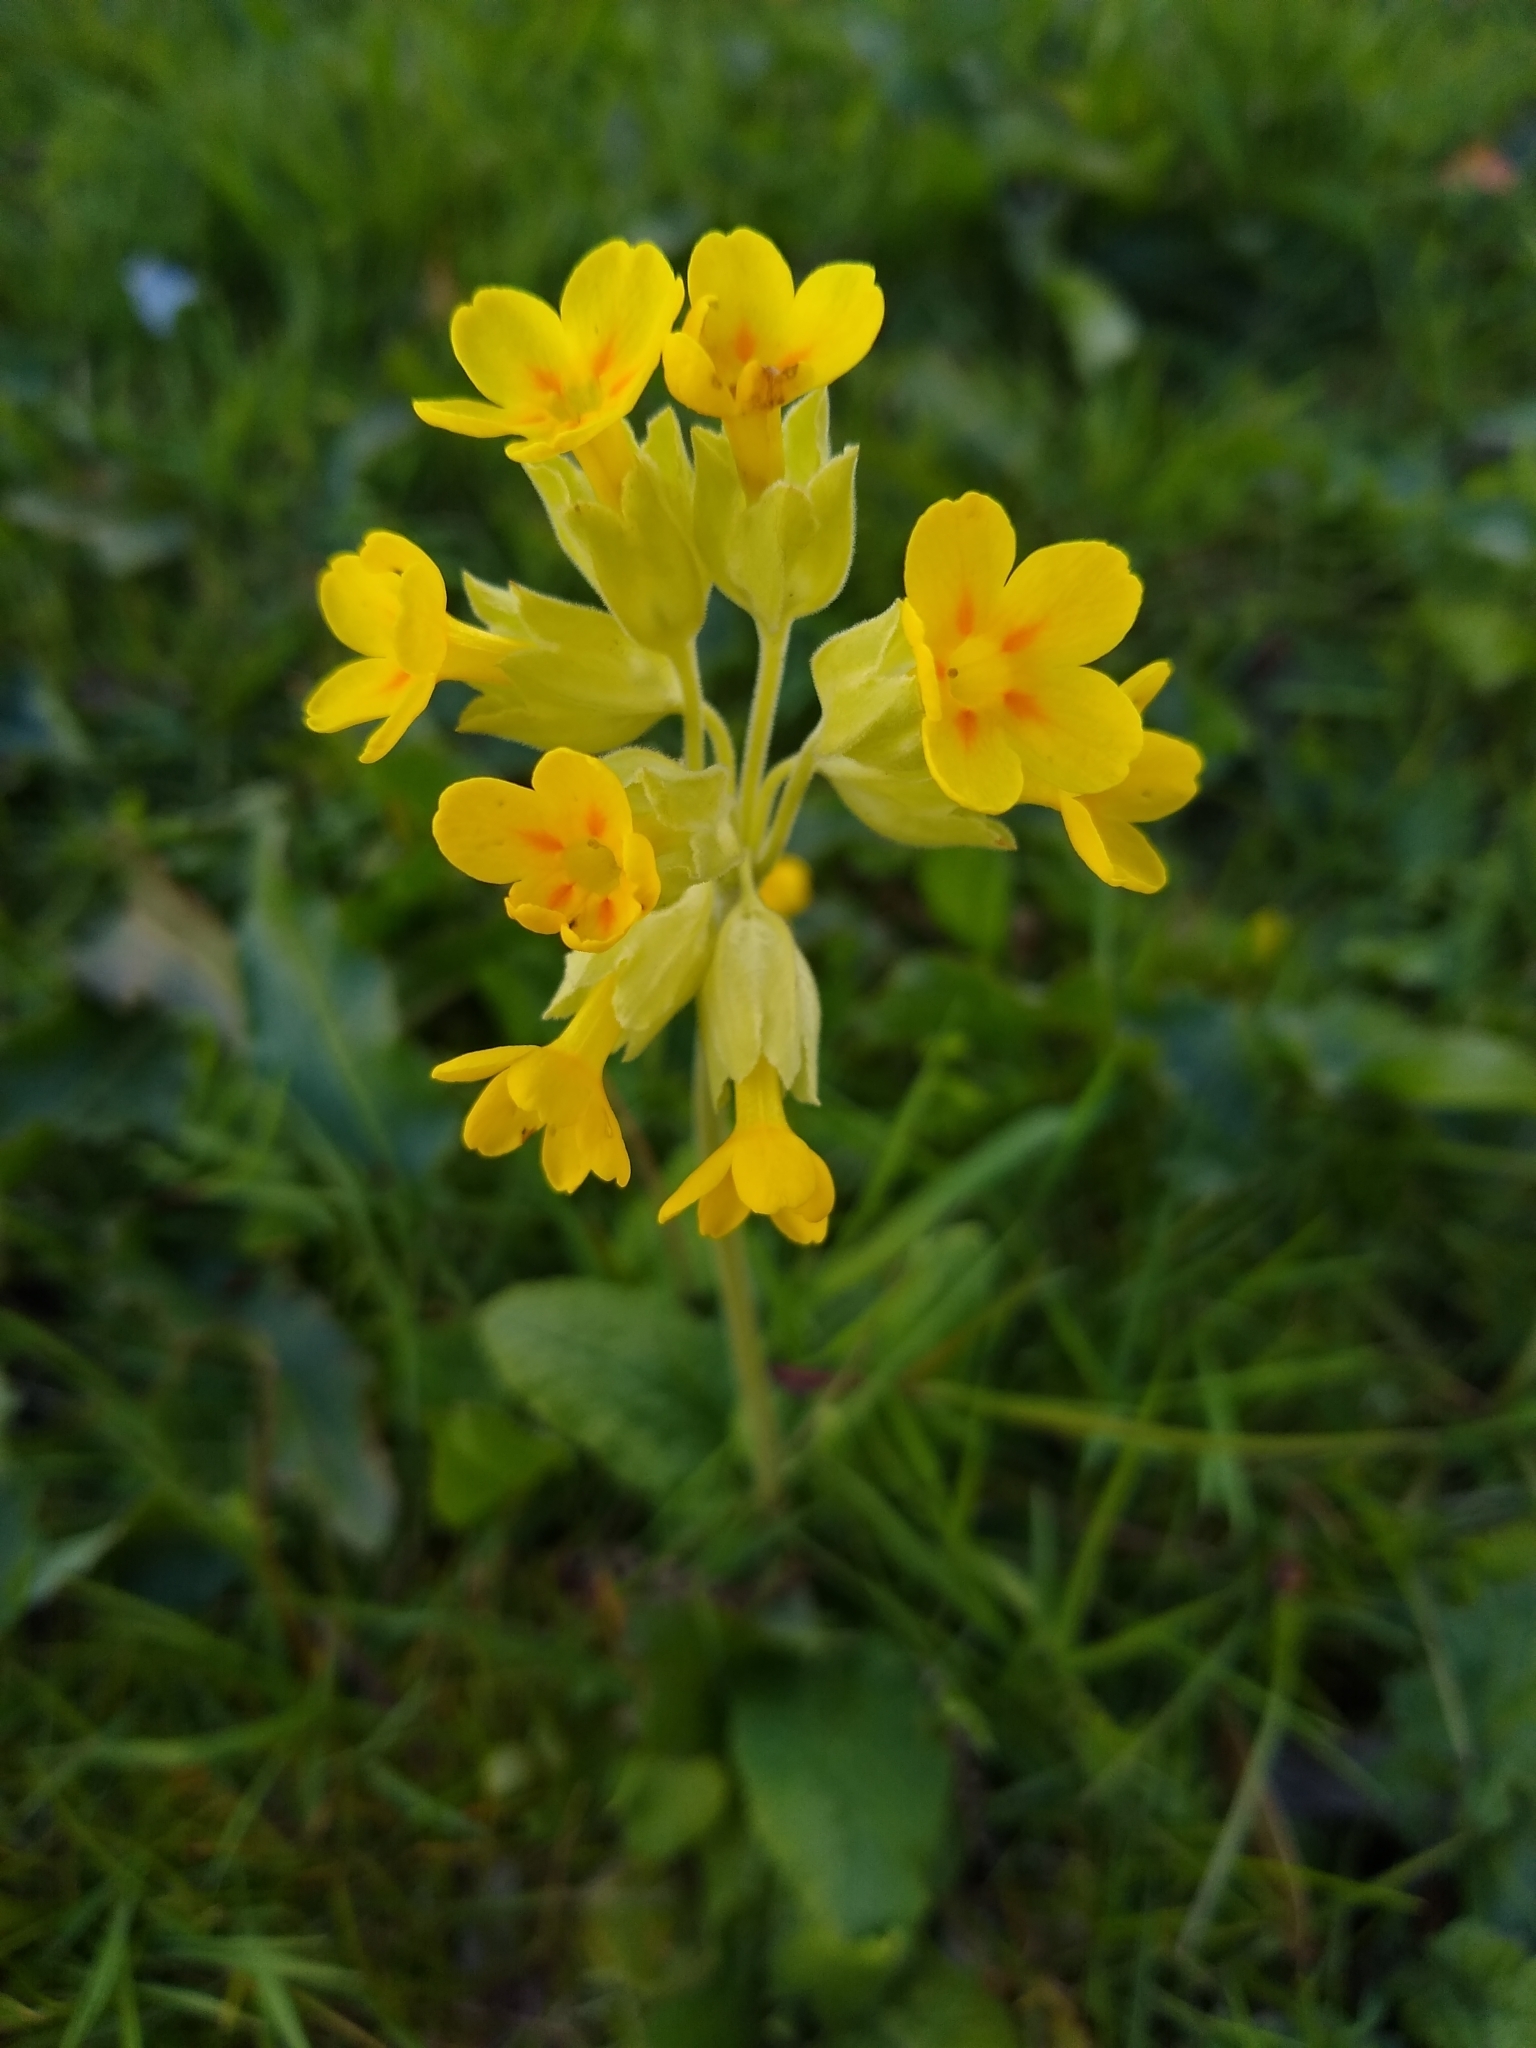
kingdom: Plantae
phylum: Tracheophyta
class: Magnoliopsida
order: Ericales
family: Primulaceae
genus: Primula
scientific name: Primula polyantha
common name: False oxlip
